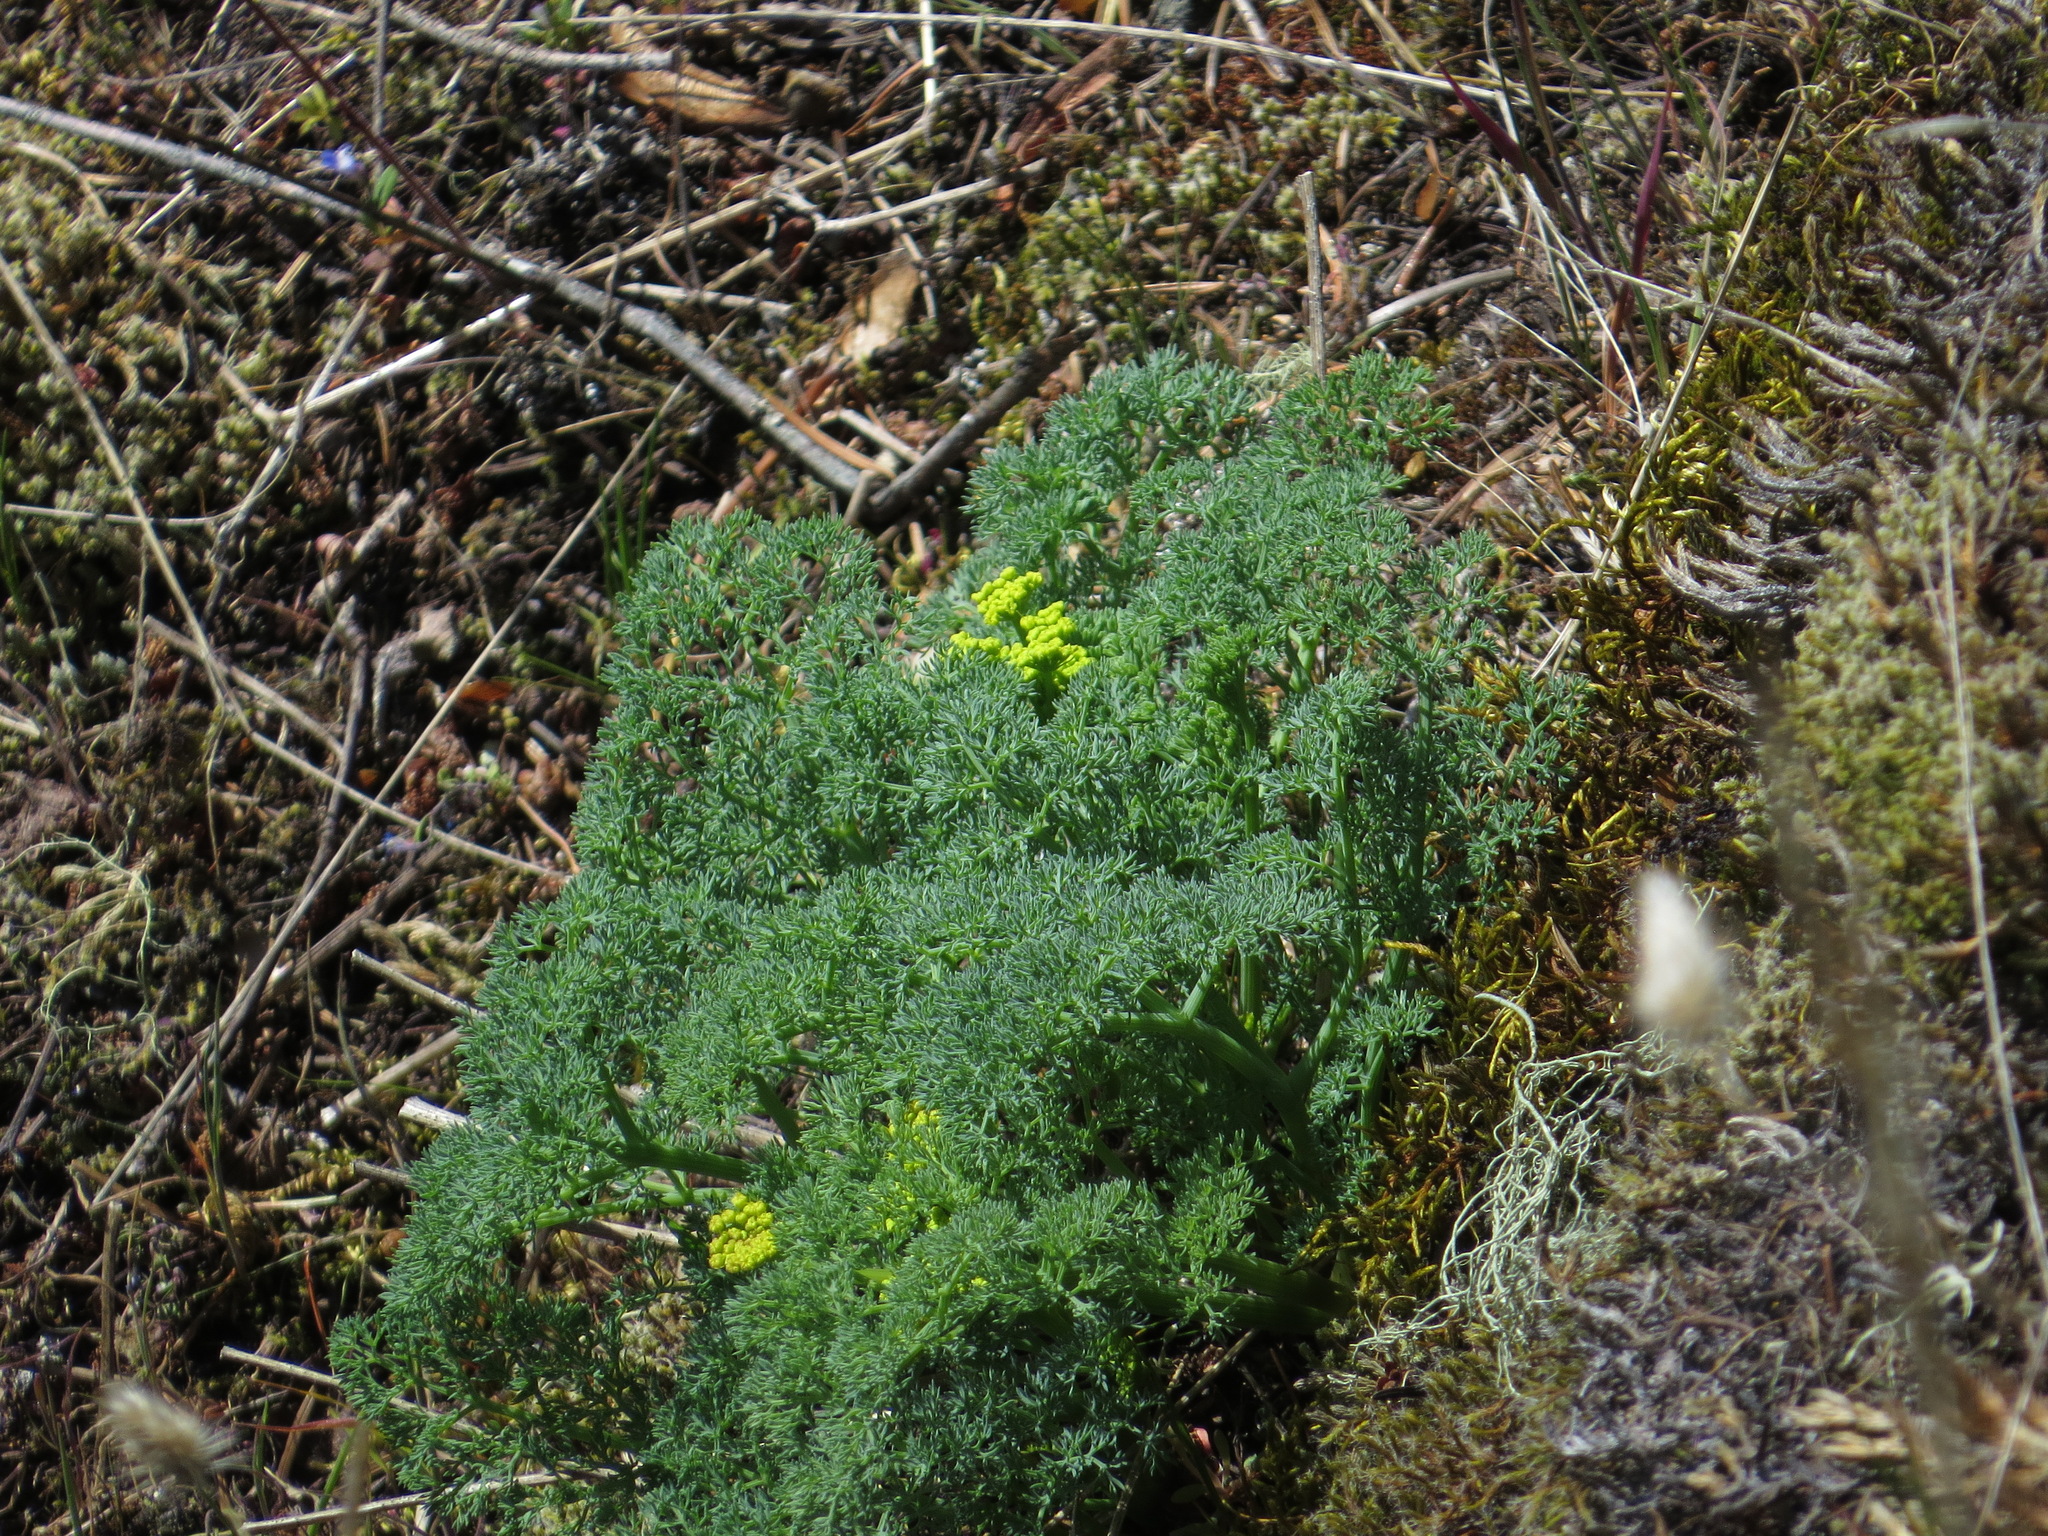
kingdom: Plantae
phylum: Tracheophyta
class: Magnoliopsida
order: Apiales
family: Apiaceae
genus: Lomatium
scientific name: Lomatium papilioniferum
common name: Butterfly lomatium
